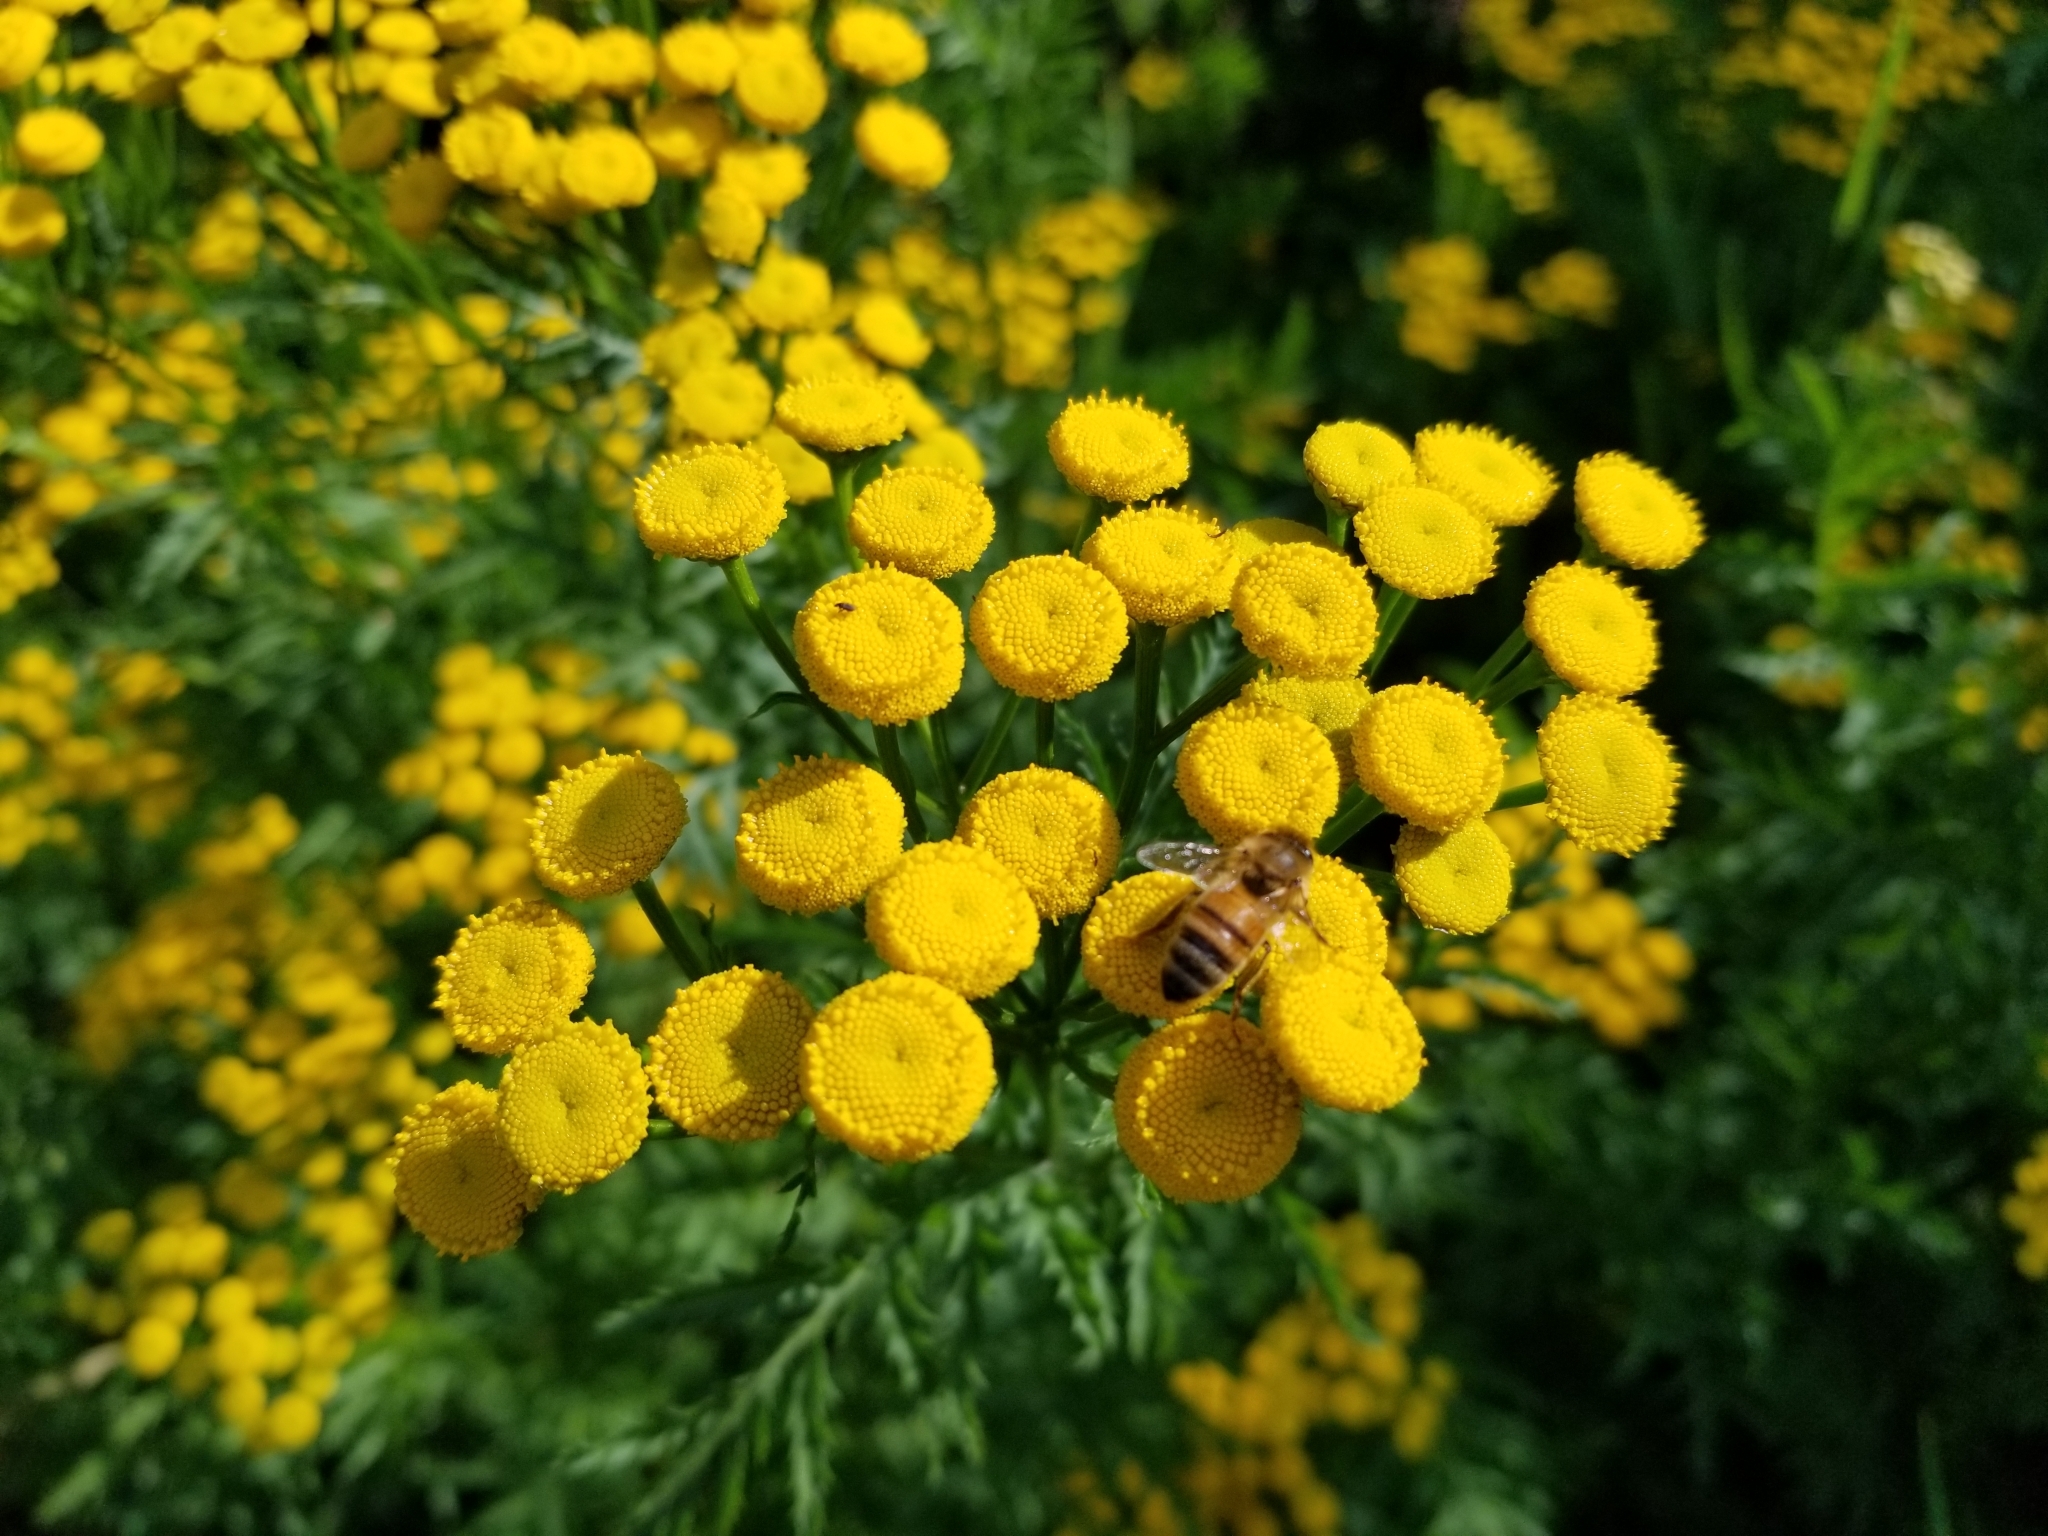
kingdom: Plantae
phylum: Tracheophyta
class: Magnoliopsida
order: Asterales
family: Asteraceae
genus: Tanacetum
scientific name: Tanacetum vulgare
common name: Common tansy
